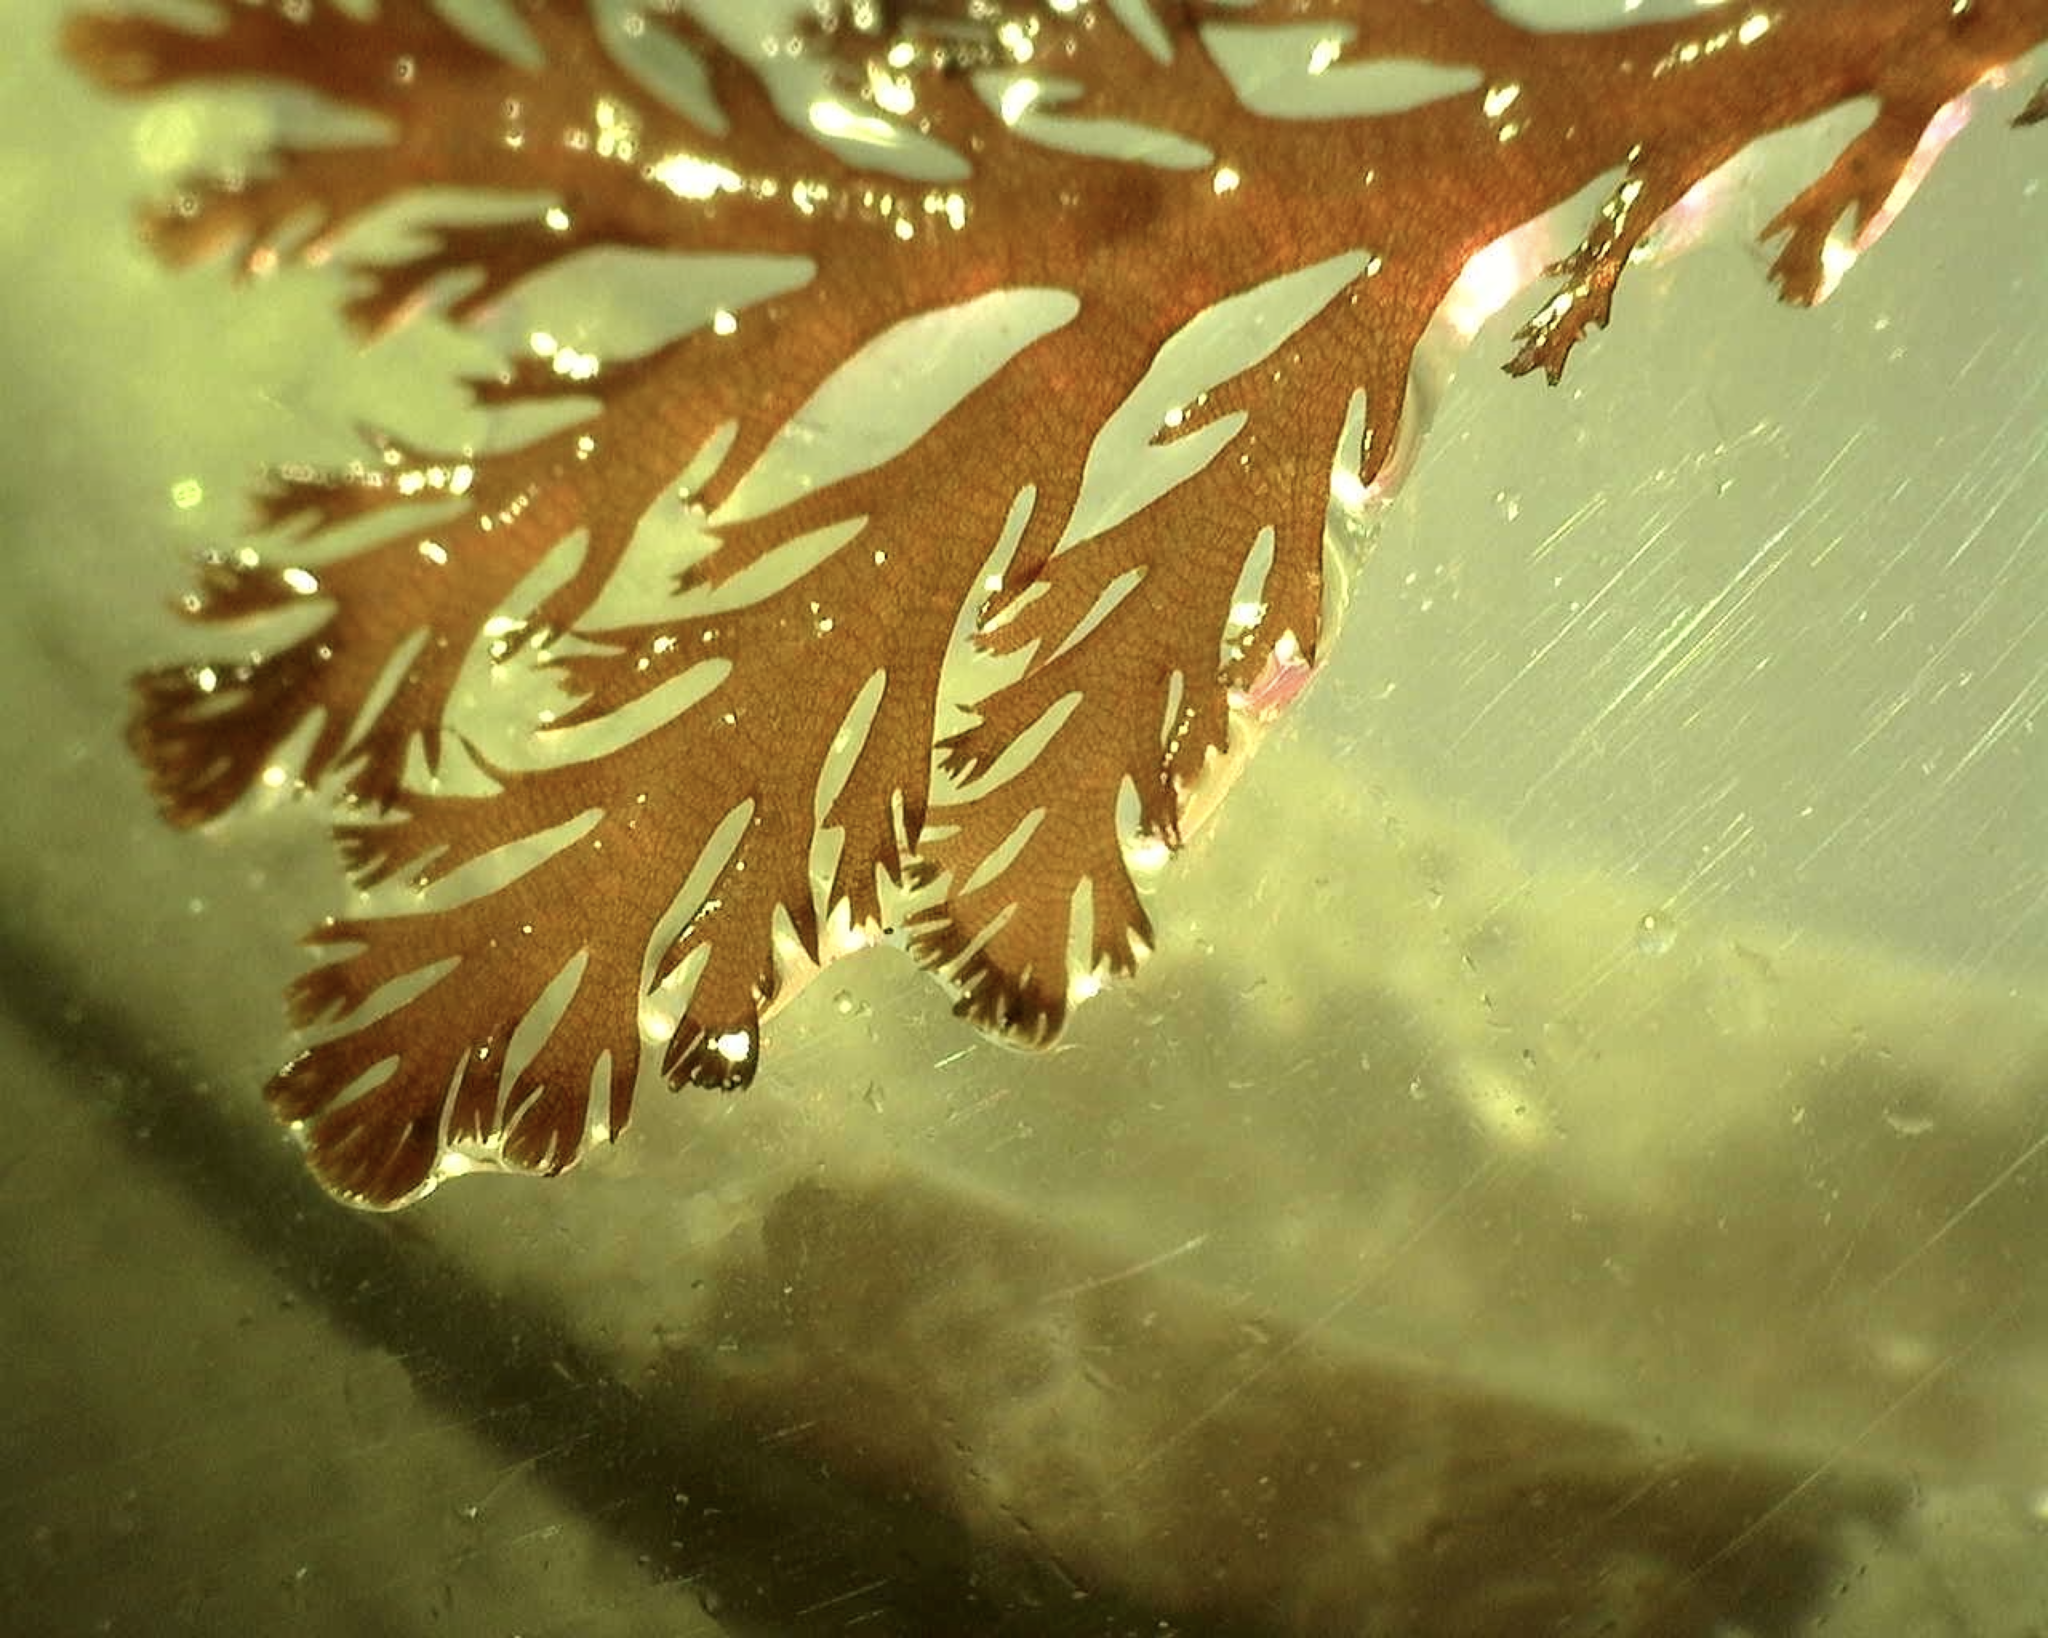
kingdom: Plantae
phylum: Rhodophyta
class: Florideophyceae
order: Ceramiales
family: Rhodomelaceae
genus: Pterosiphonia
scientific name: Pterosiphonia complanata
